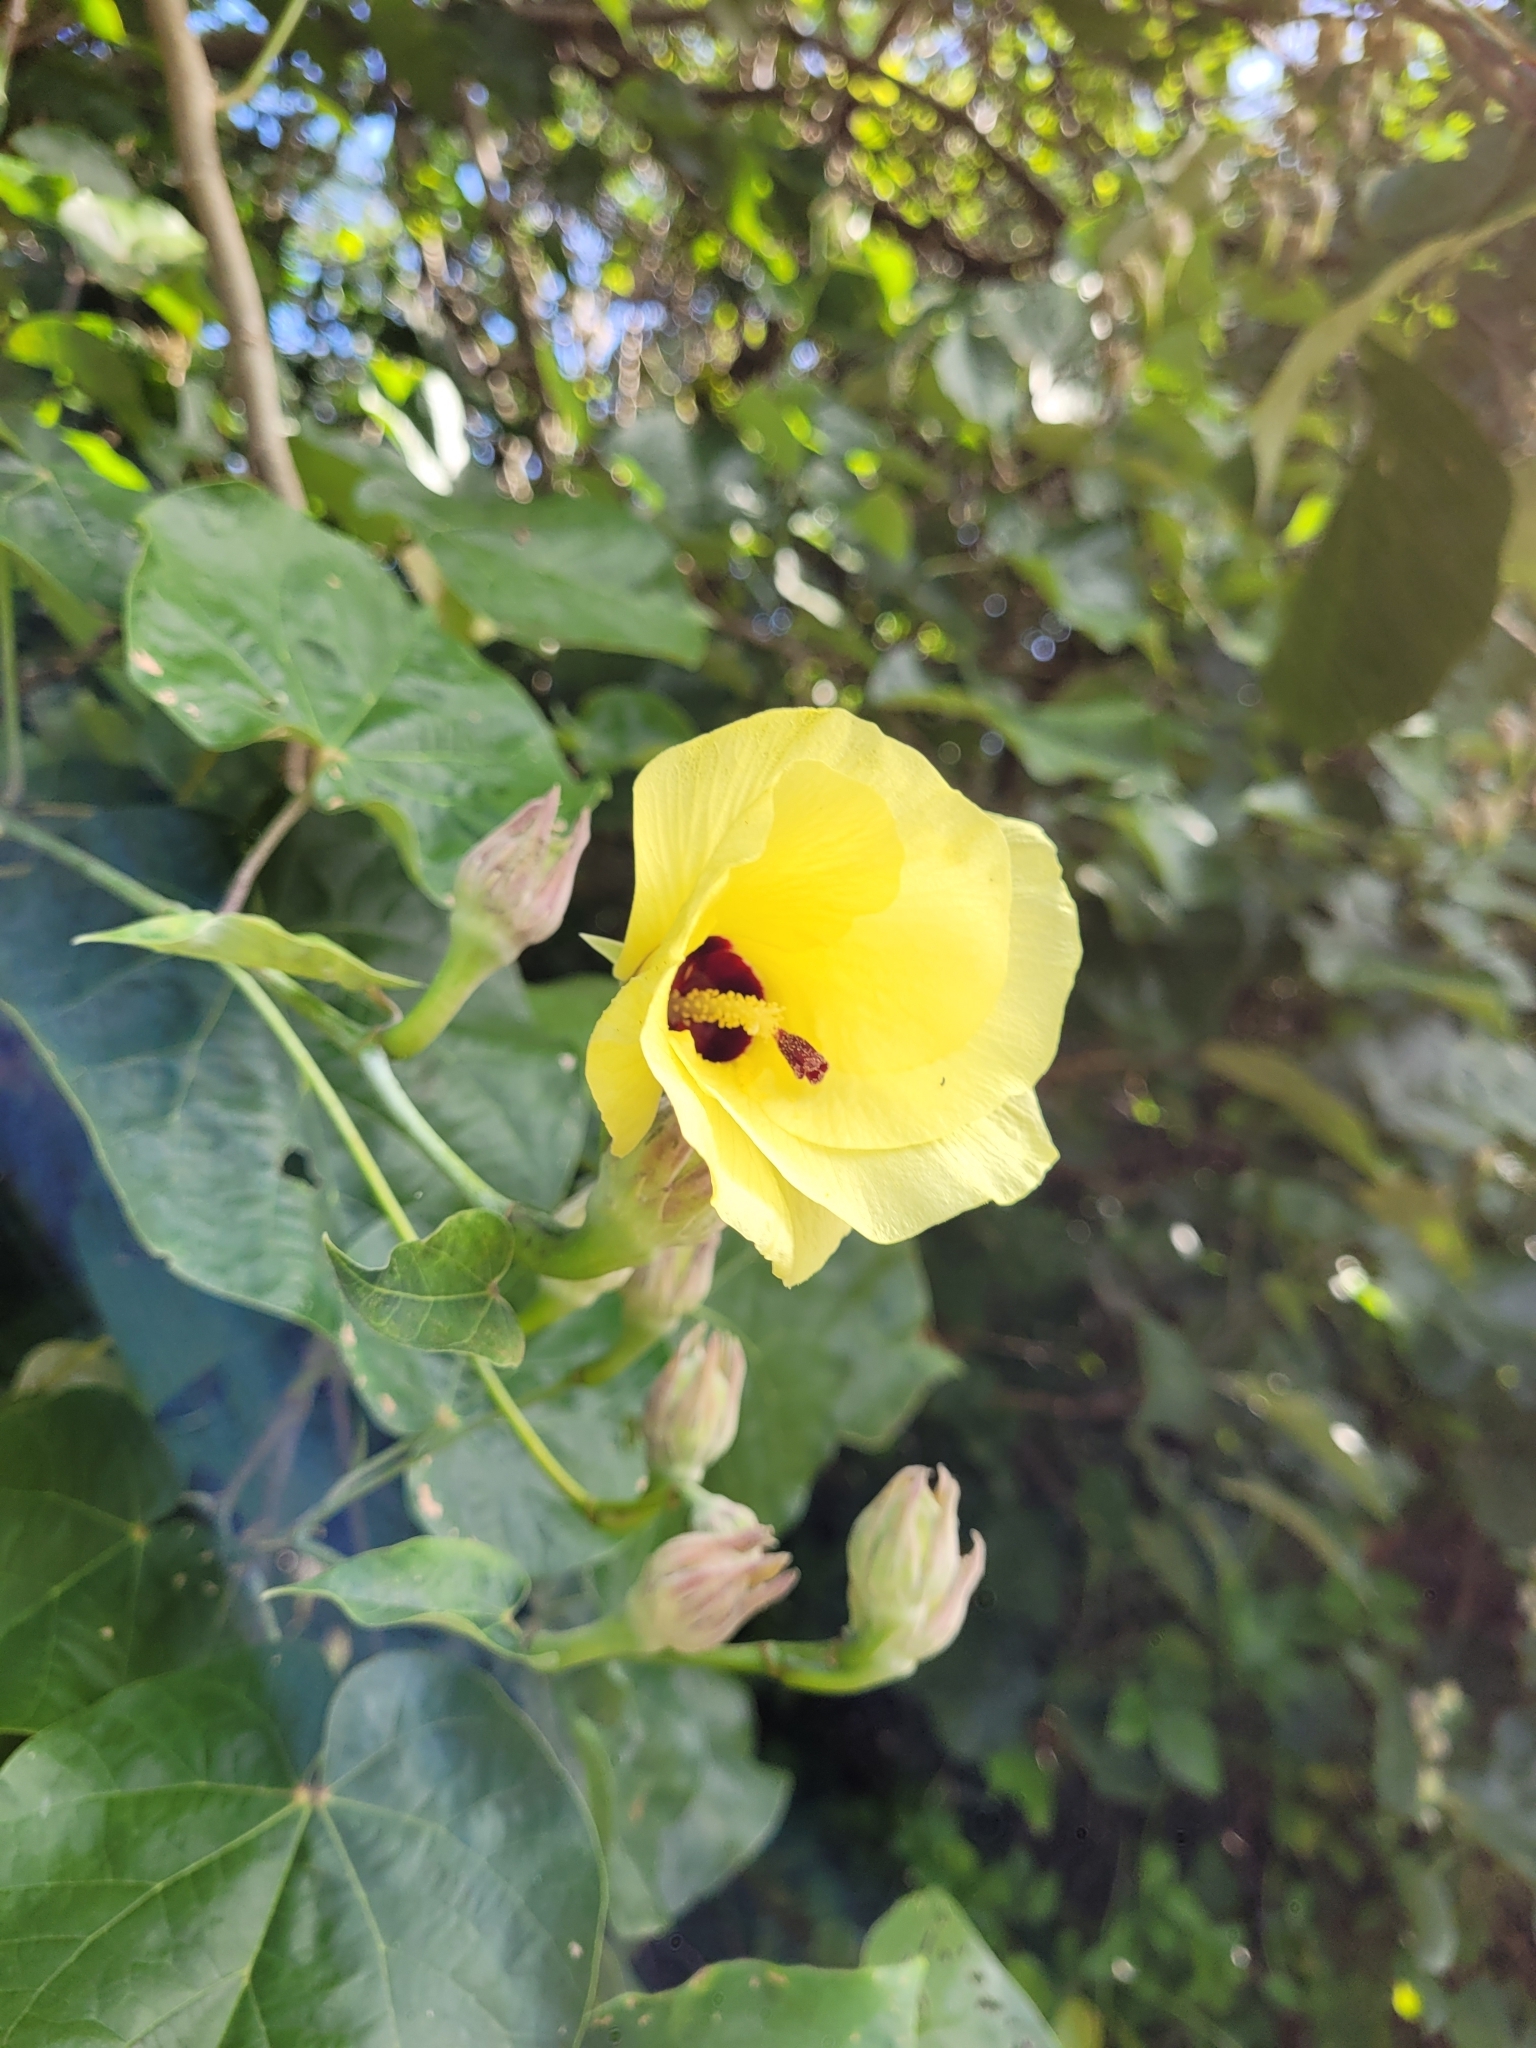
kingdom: Plantae
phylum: Tracheophyta
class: Magnoliopsida
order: Malvales
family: Malvaceae
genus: Talipariti
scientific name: Talipariti tiliaceum
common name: Sea hibiscus
